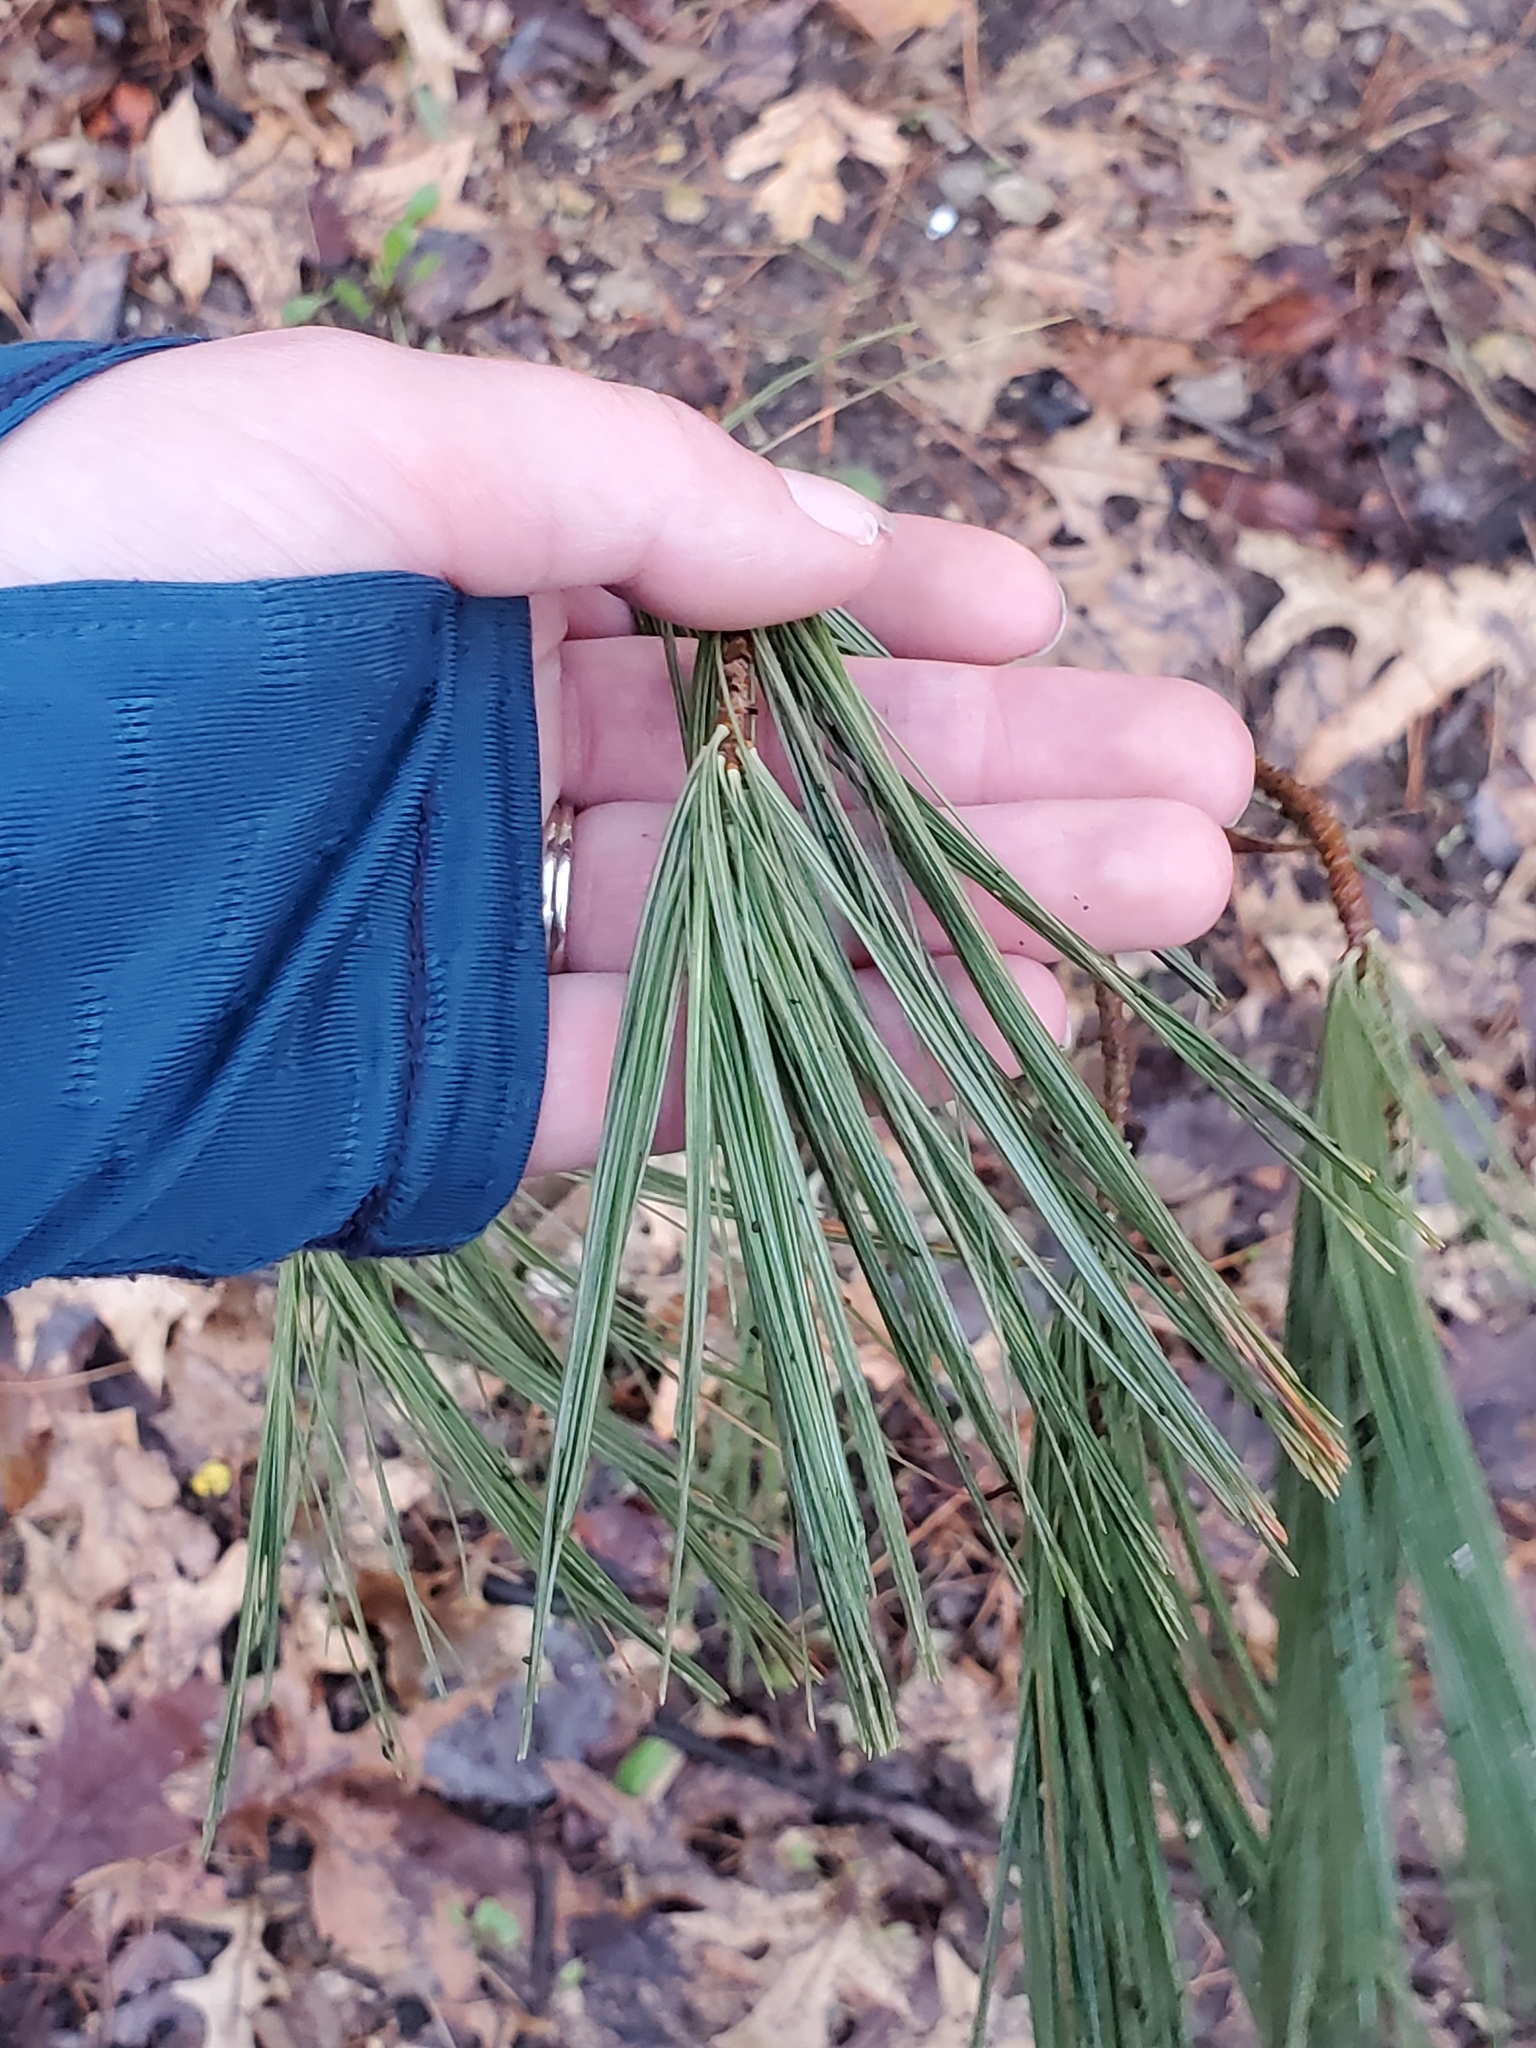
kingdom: Plantae
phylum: Tracheophyta
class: Pinopsida
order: Pinales
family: Pinaceae
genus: Pinus
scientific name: Pinus strobus
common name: Weymouth pine
